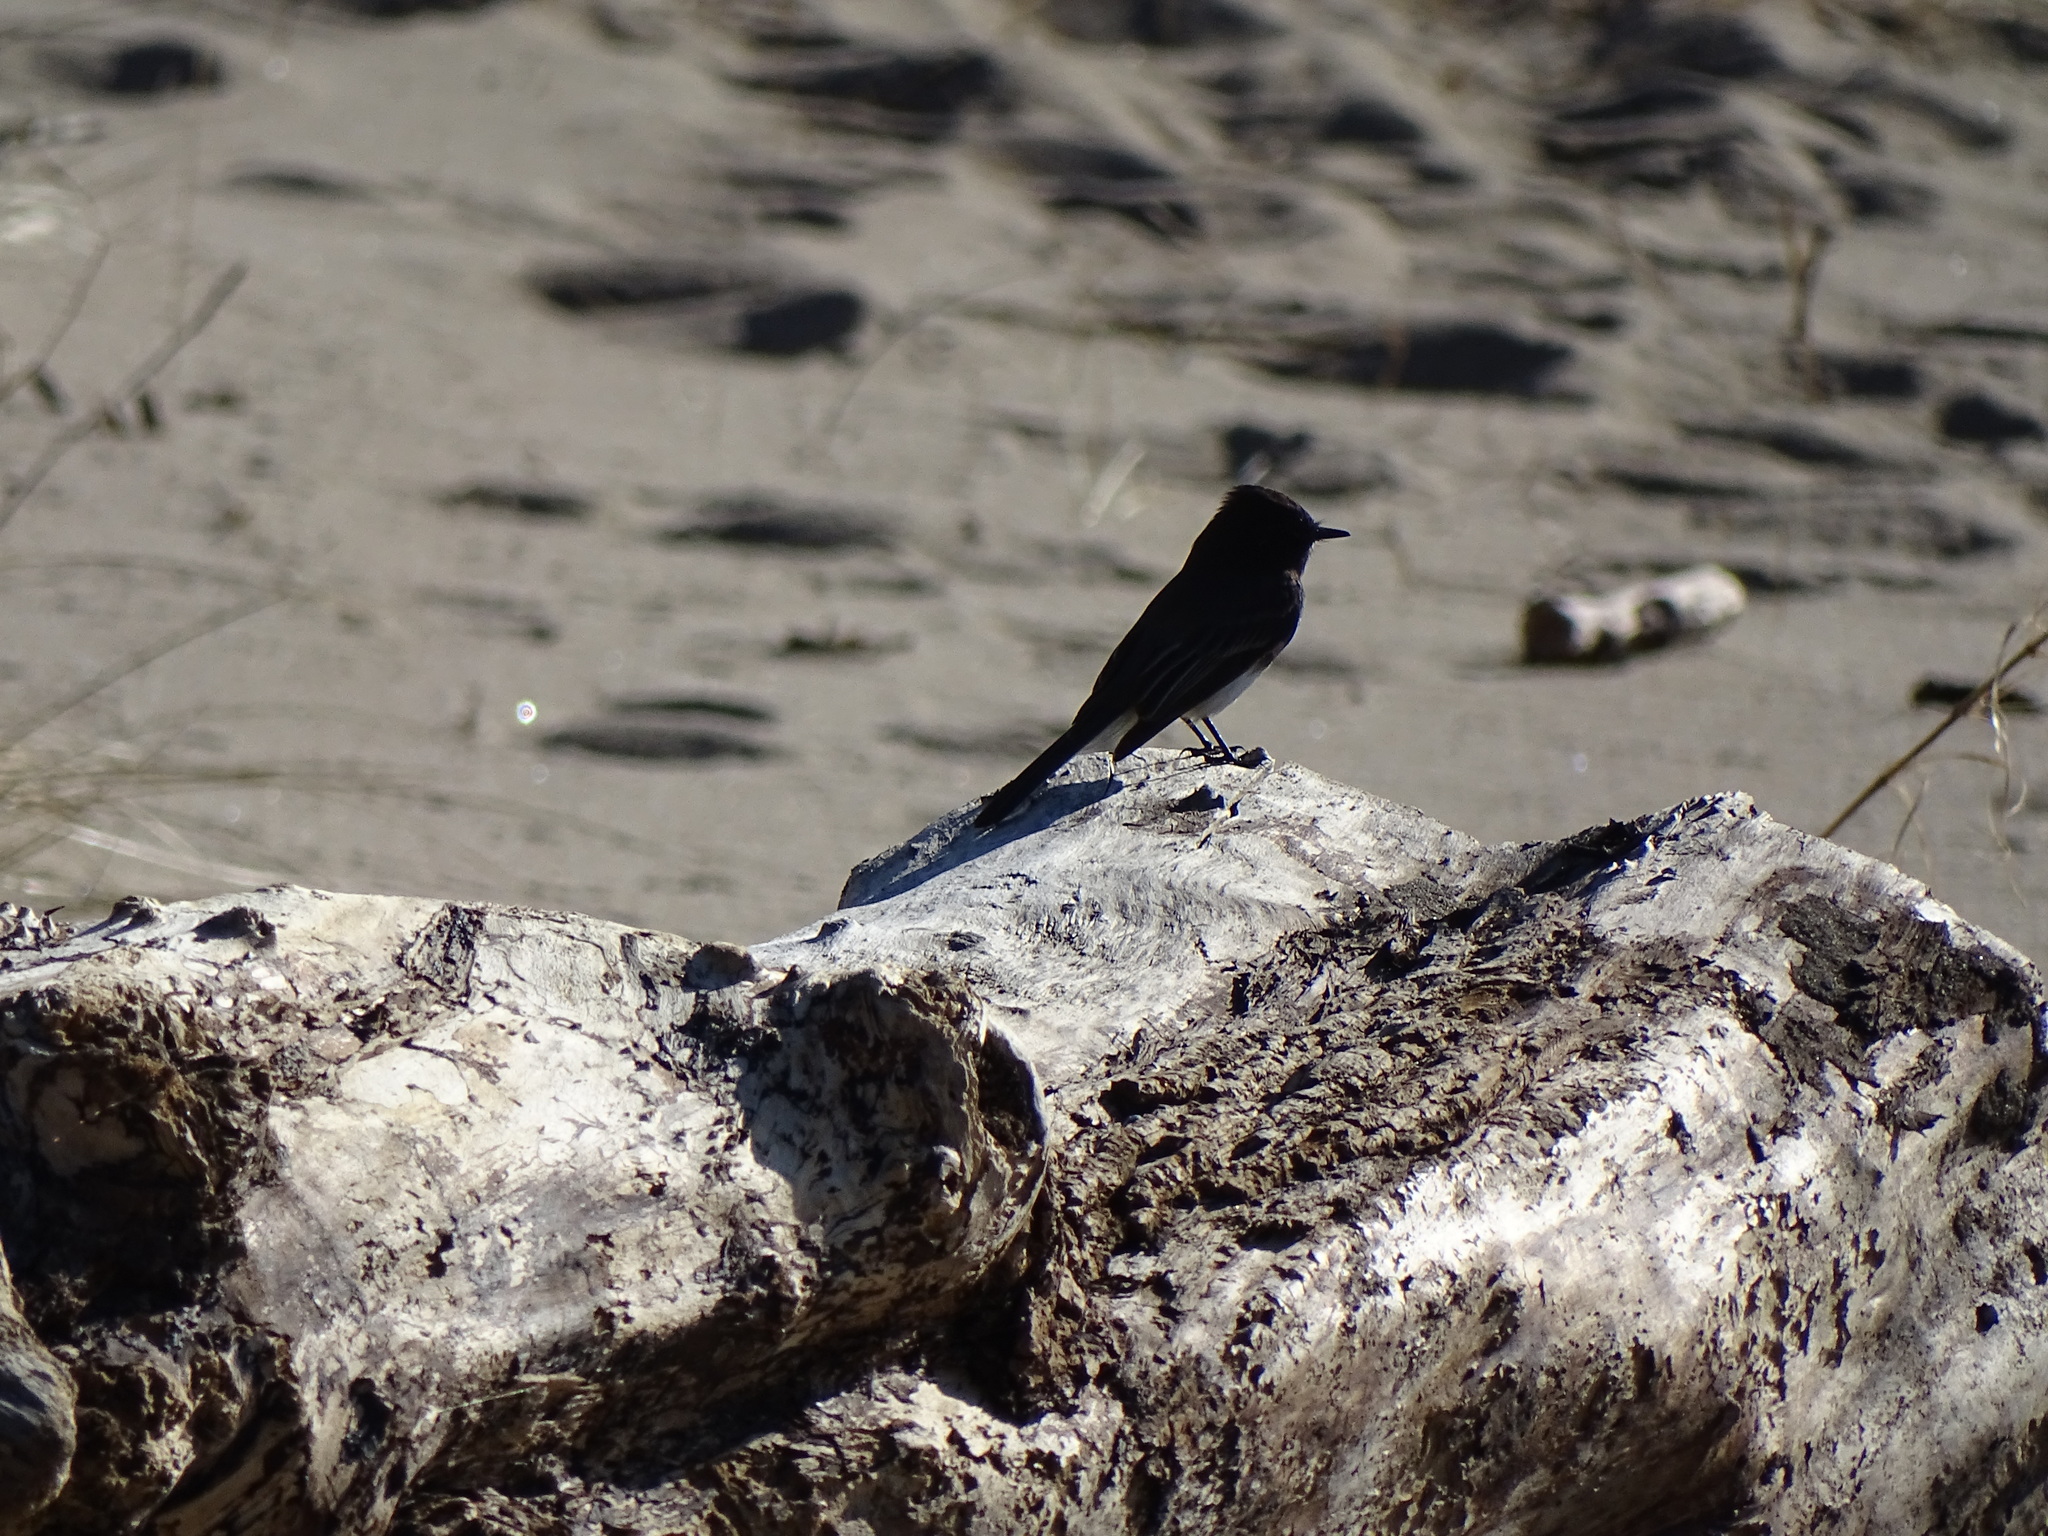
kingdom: Animalia
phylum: Chordata
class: Aves
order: Passeriformes
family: Tyrannidae
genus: Sayornis
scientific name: Sayornis nigricans
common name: Black phoebe
